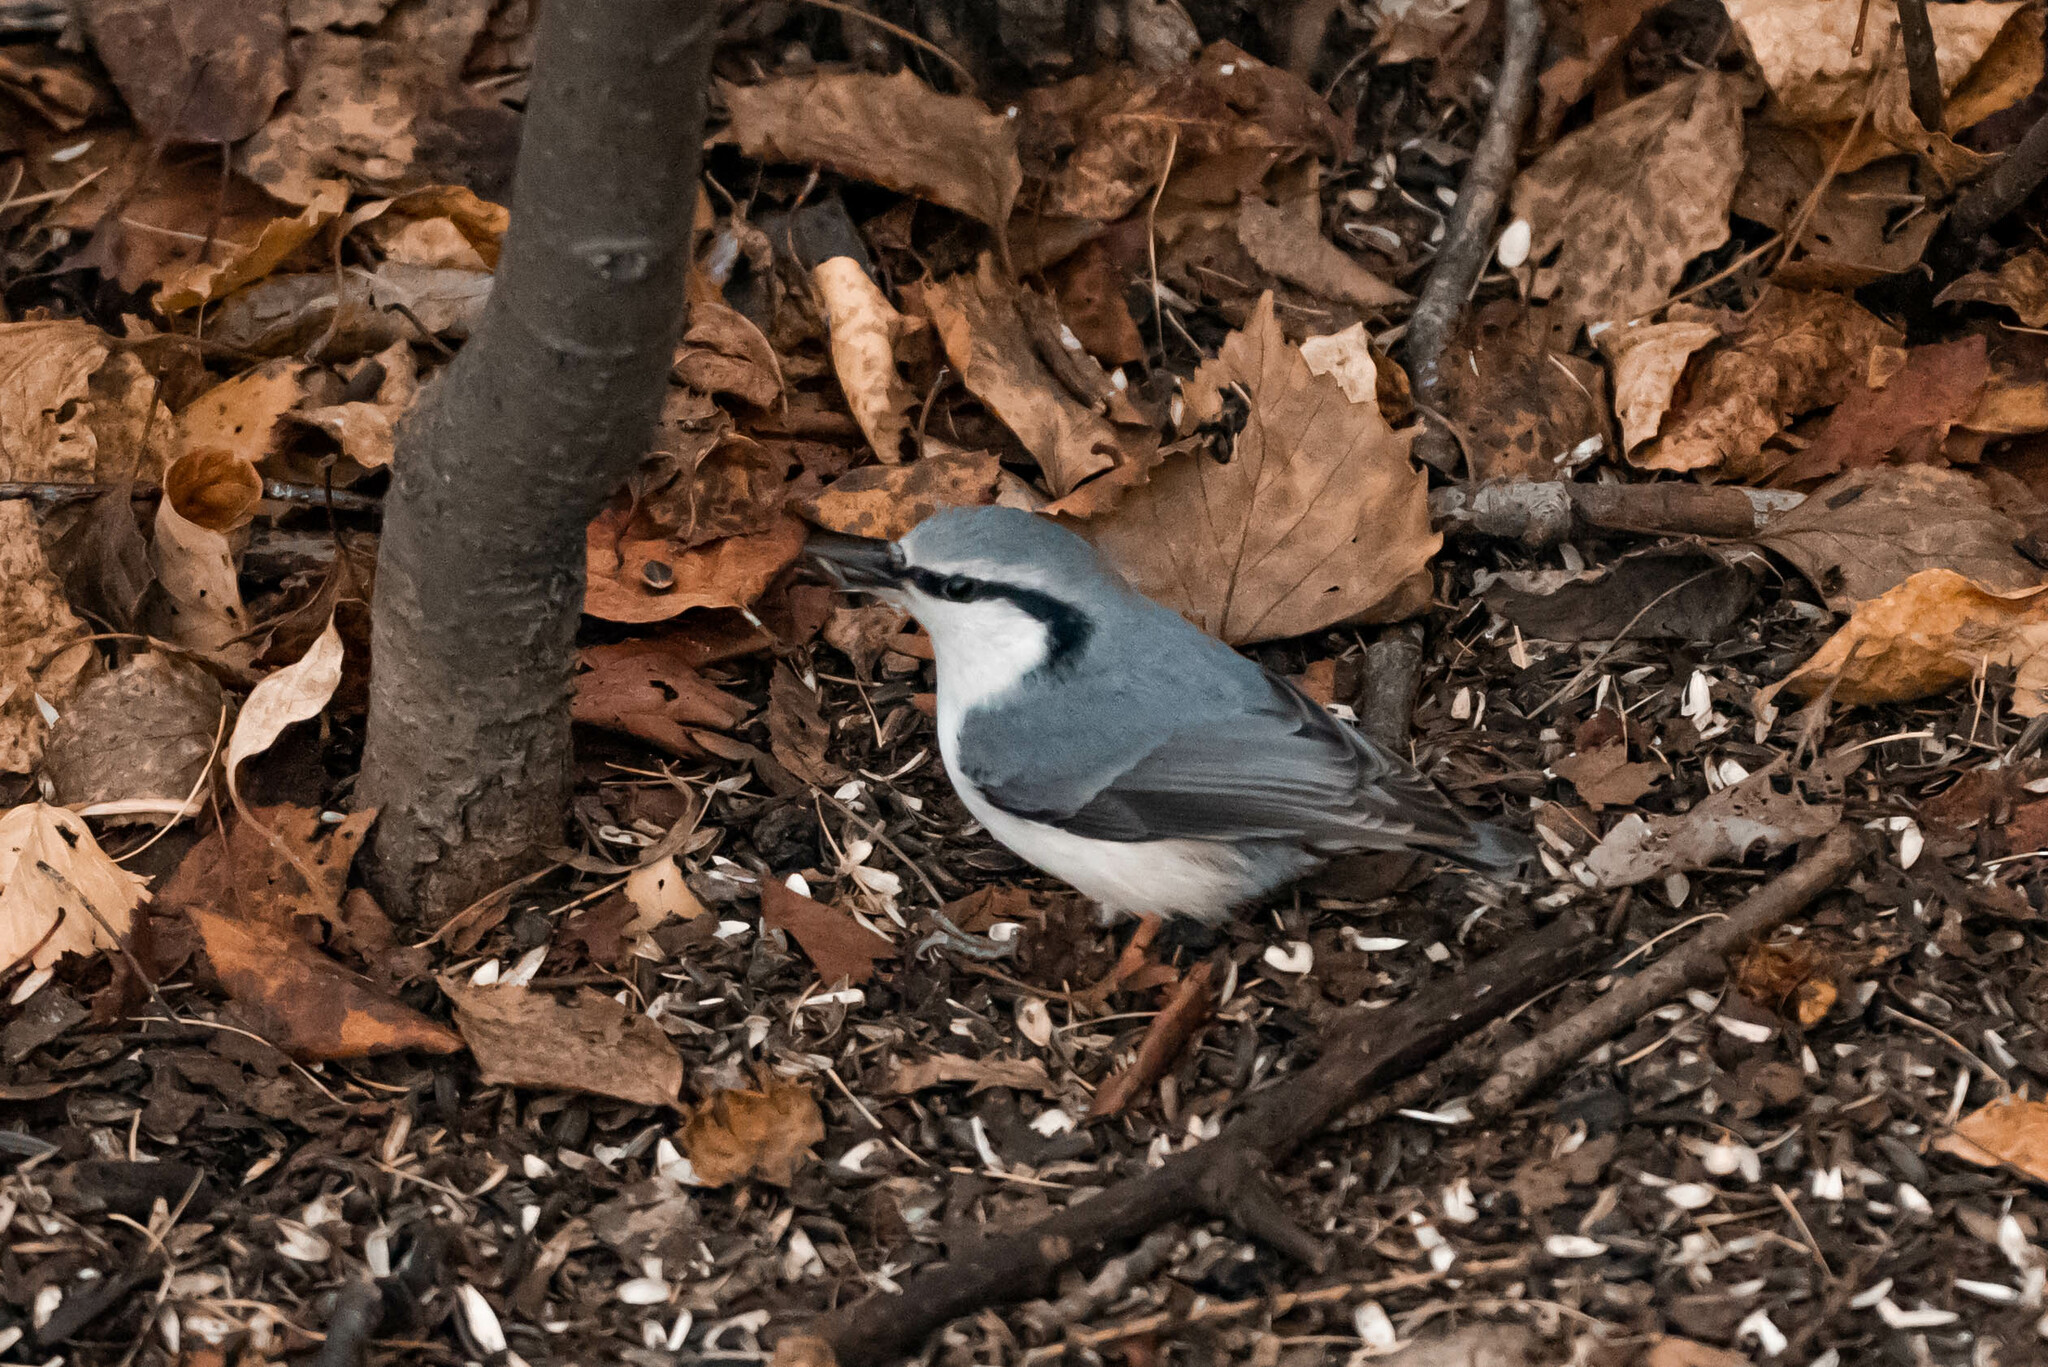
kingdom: Animalia
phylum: Chordata
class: Aves
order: Passeriformes
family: Sittidae
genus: Sitta
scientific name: Sitta europaea
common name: Eurasian nuthatch
